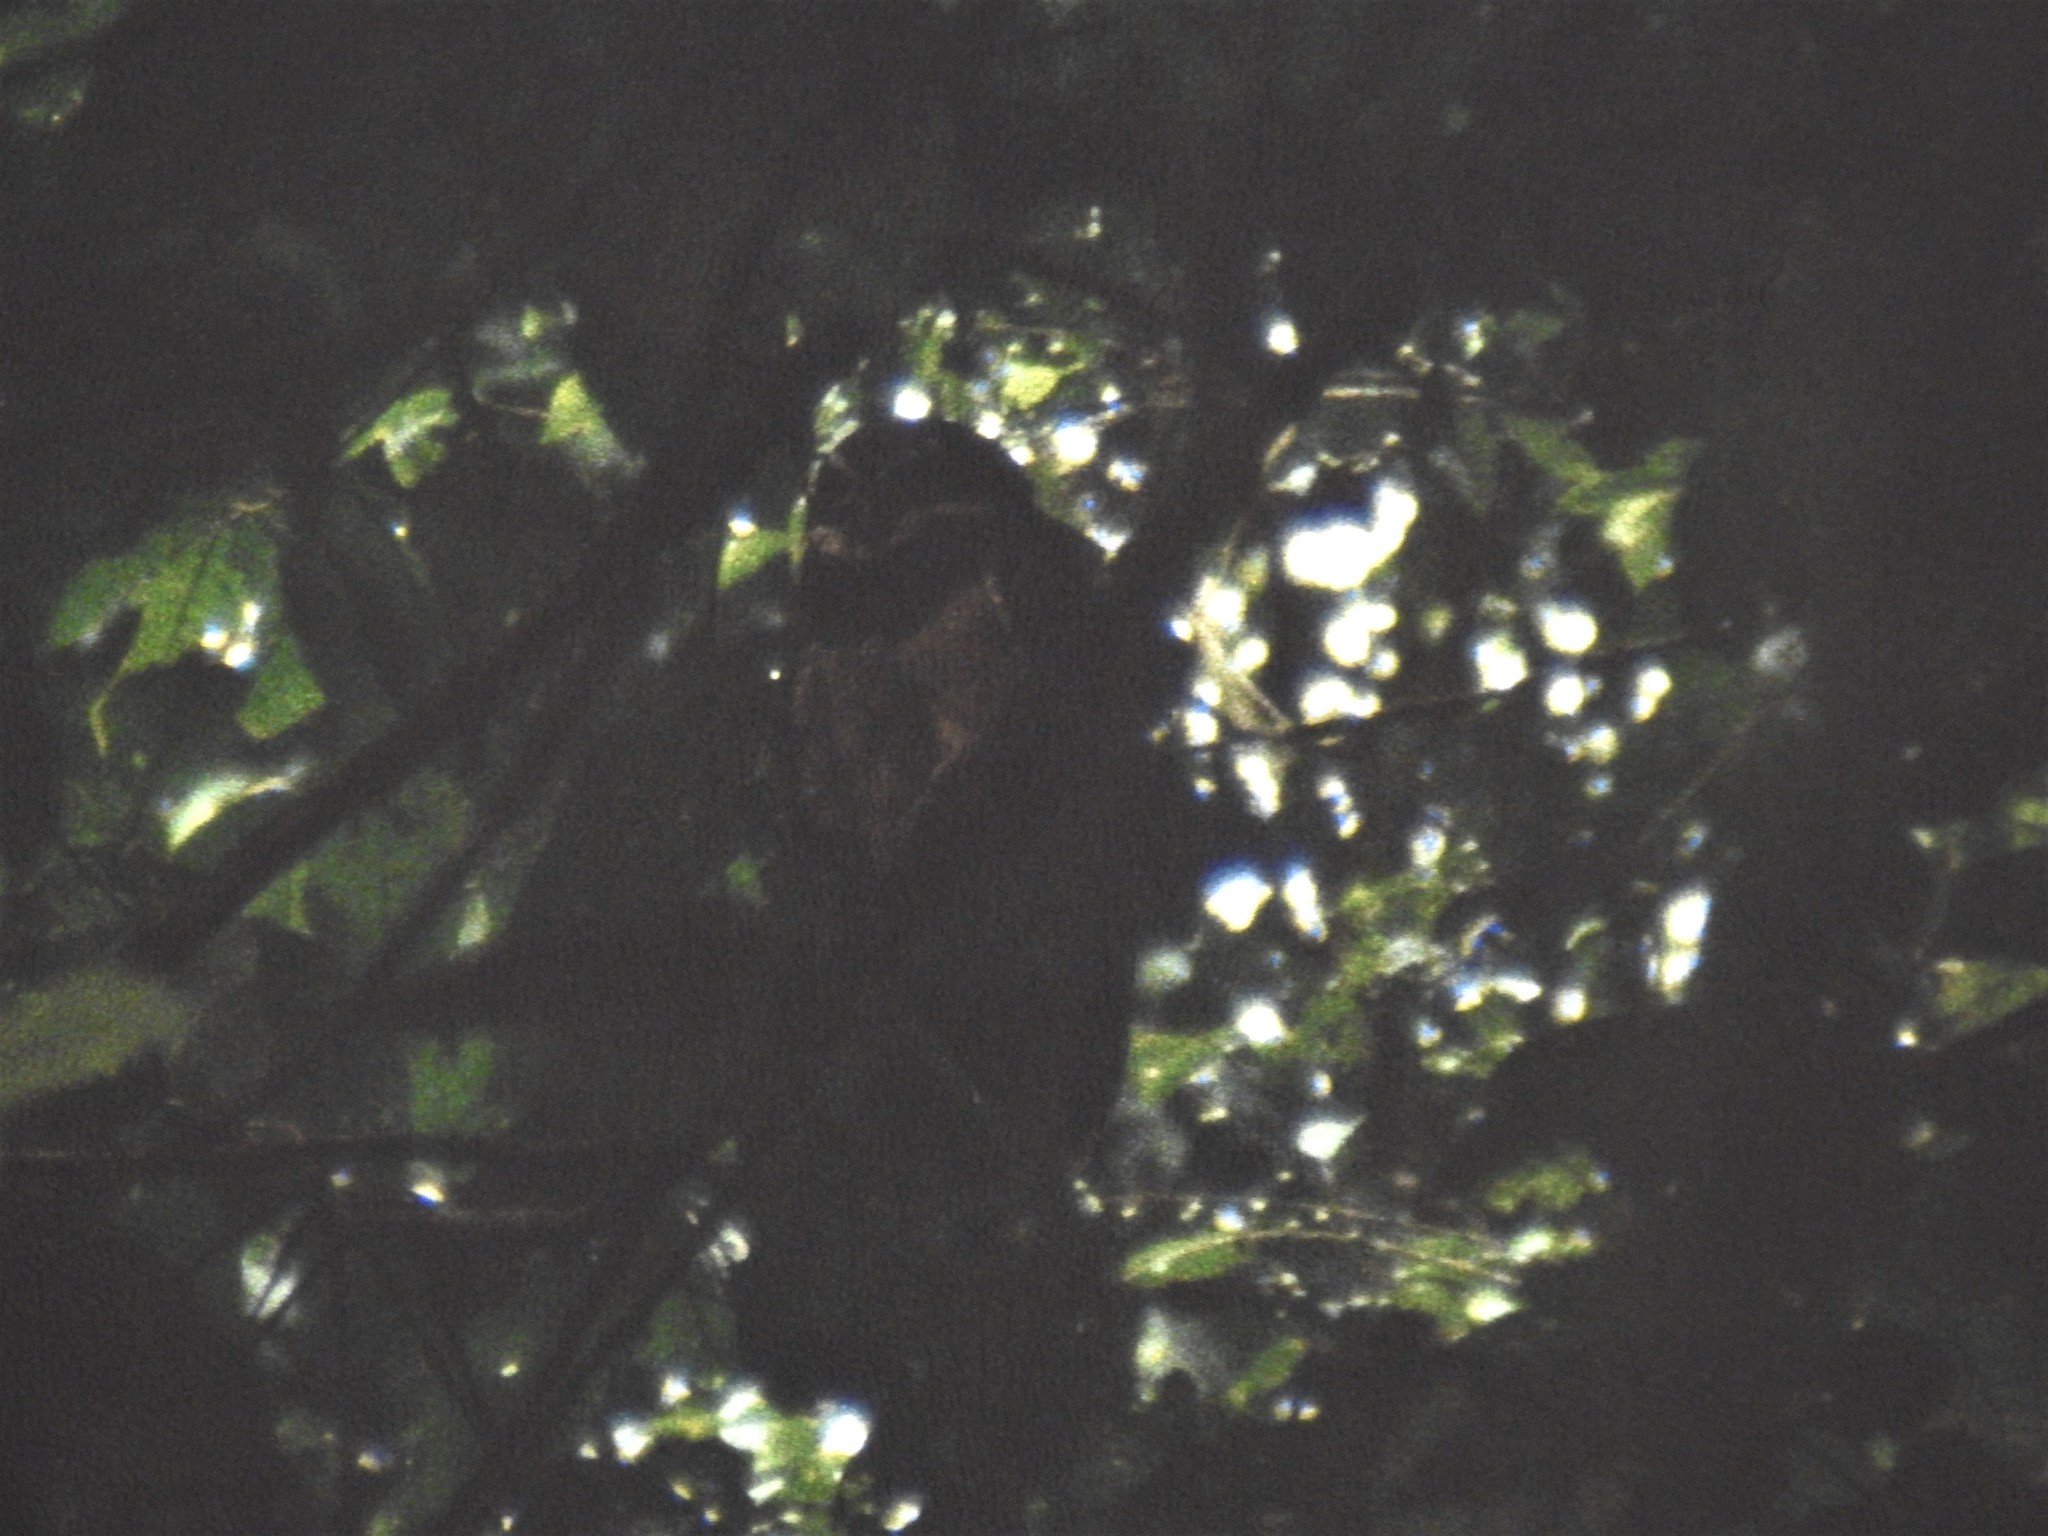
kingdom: Animalia
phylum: Chordata
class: Aves
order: Strigiformes
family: Strigidae
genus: Pulsatrix
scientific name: Pulsatrix perspicillata
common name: Spectacled owl
